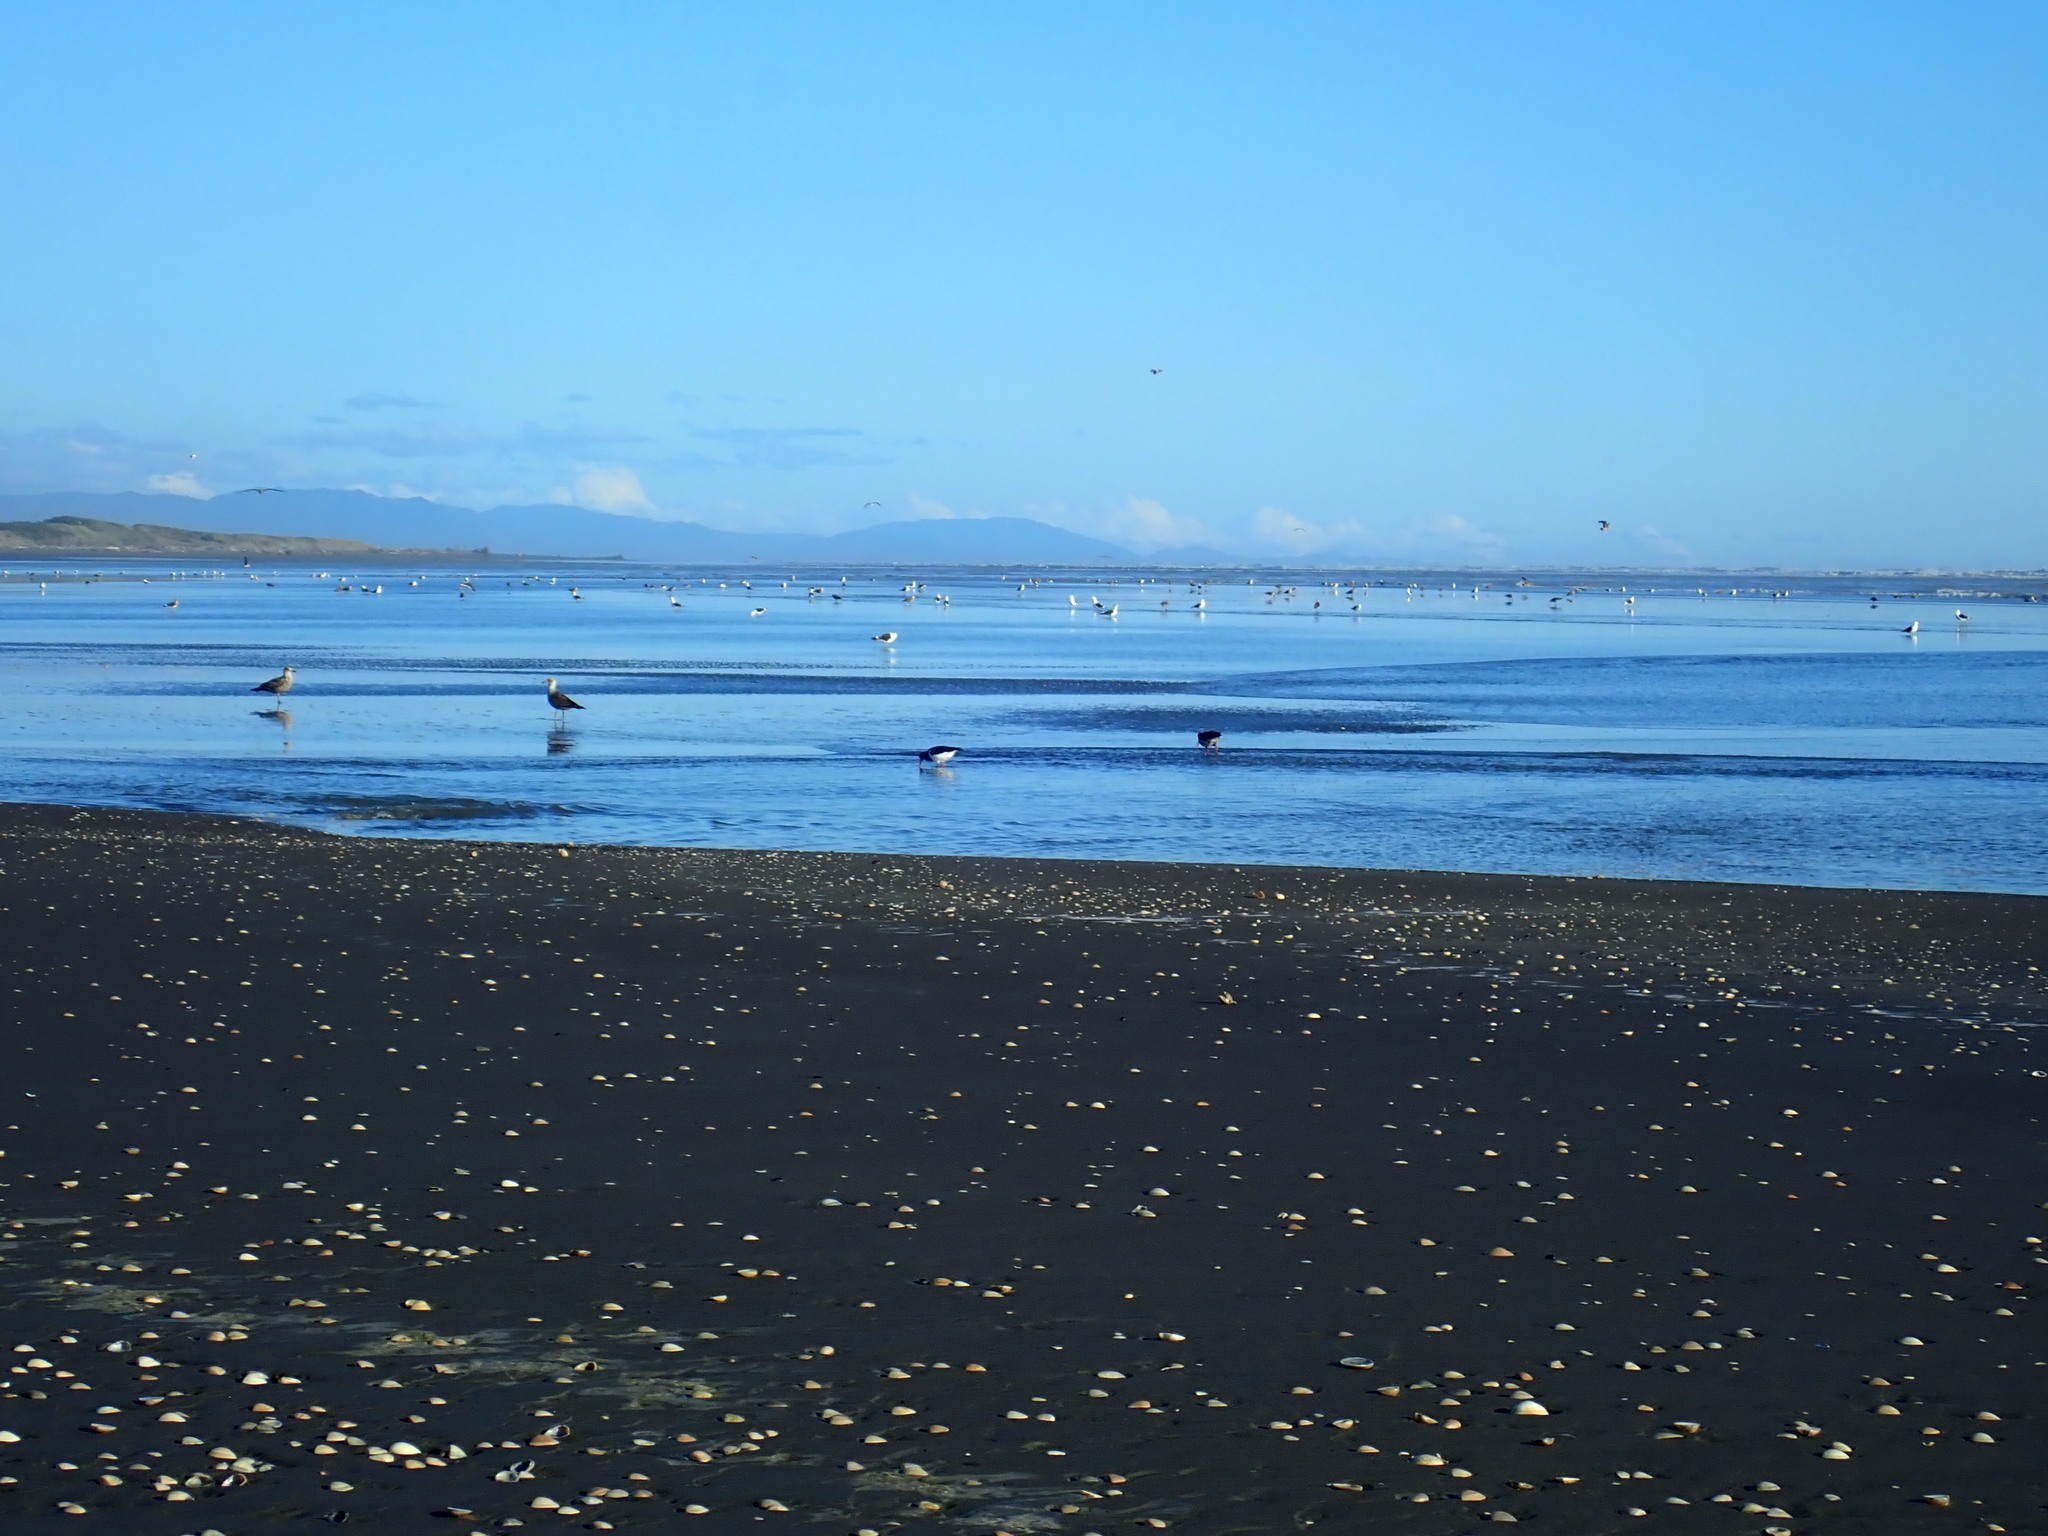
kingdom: Animalia
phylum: Chordata
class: Aves
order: Charadriiformes
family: Haematopodidae
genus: Haematopus
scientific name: Haematopus finschi
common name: South island oystercatcher
